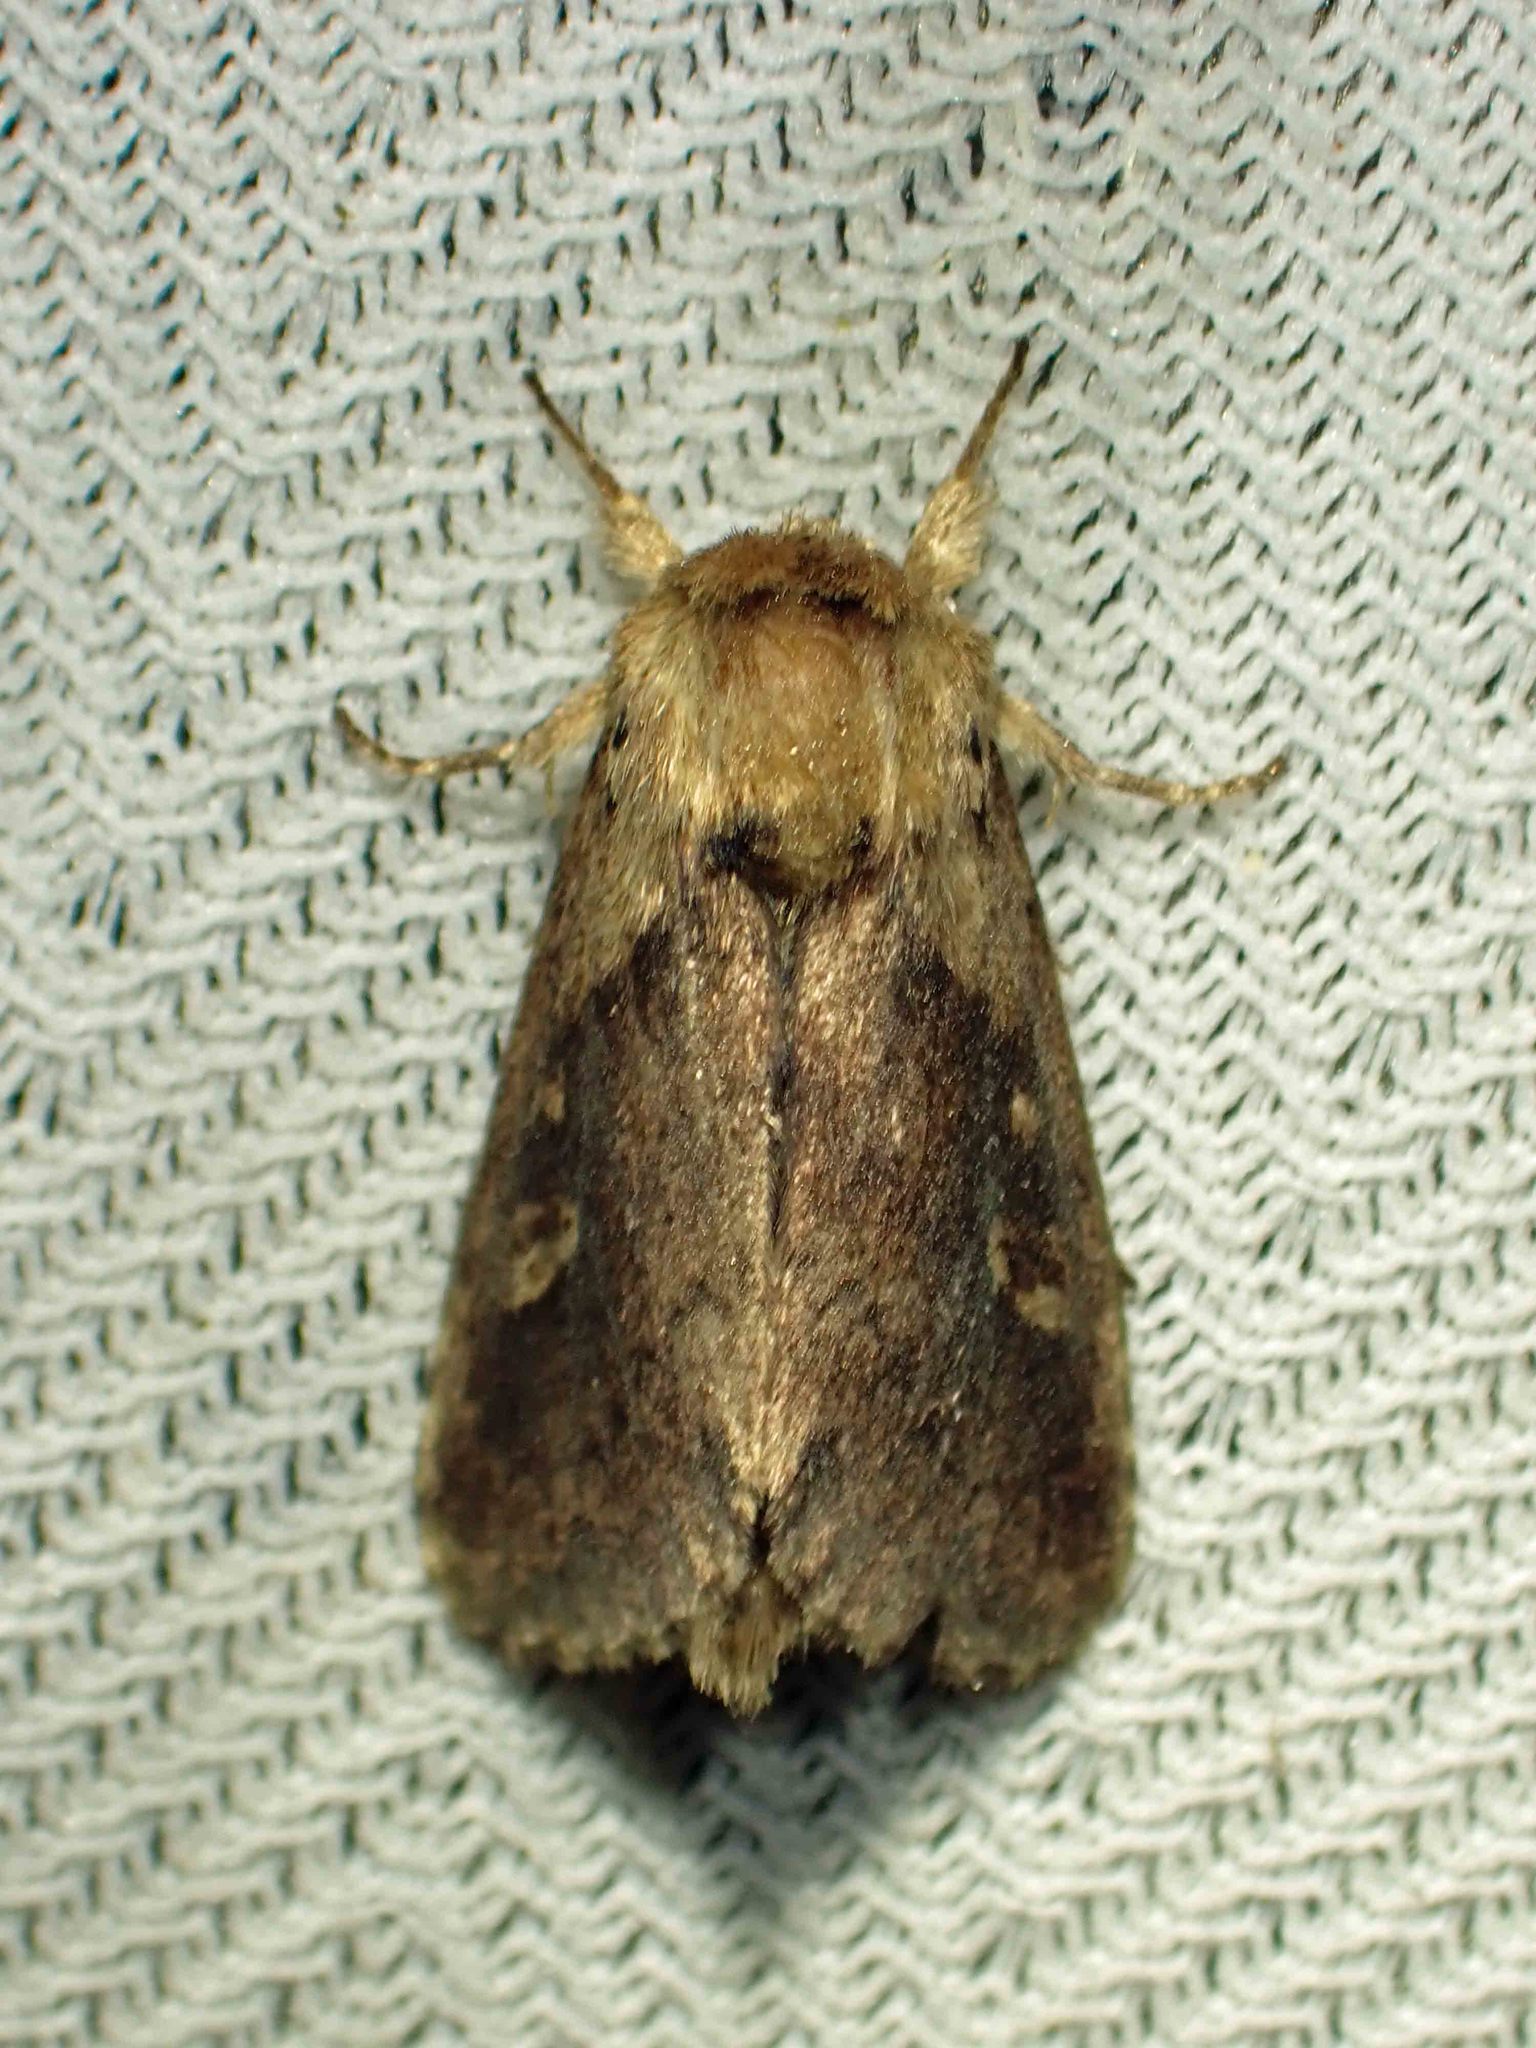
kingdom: Animalia
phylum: Arthropoda
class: Insecta
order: Lepidoptera
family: Noctuidae
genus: Bellura
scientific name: Bellura vulnifica
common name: Black-tailed diver moth
